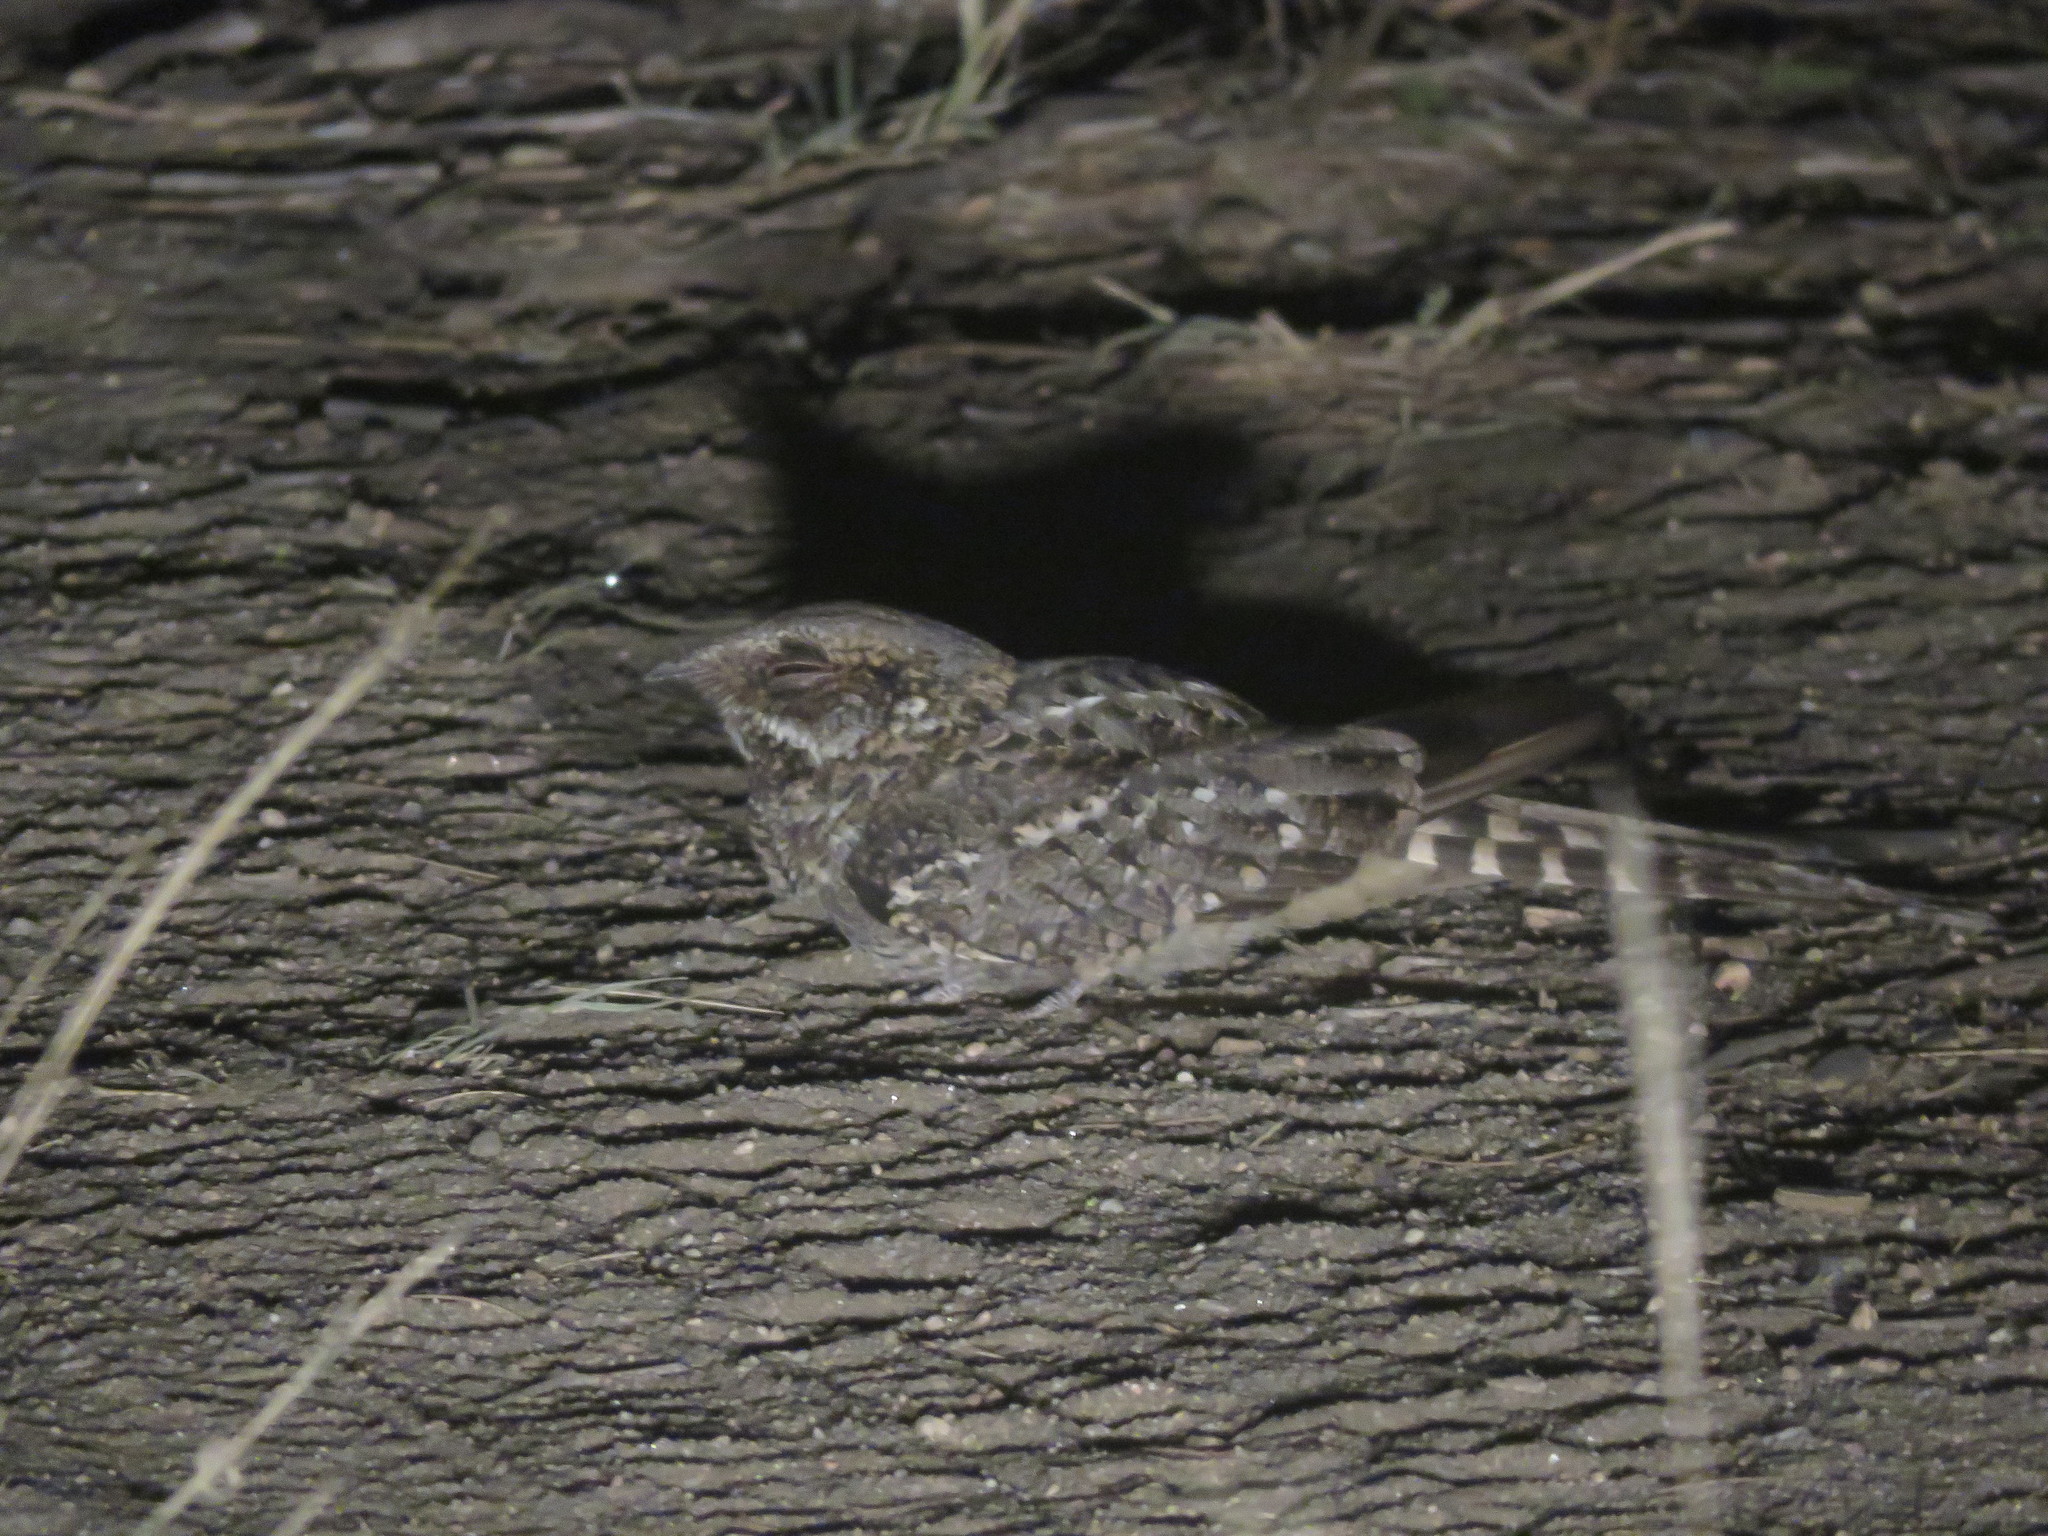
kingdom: Animalia
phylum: Chordata
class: Aves
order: Caprimulgiformes
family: Caprimulgidae
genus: Hydropsalis
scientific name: Hydropsalis torquata
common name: Scissor-tailed nightjar
